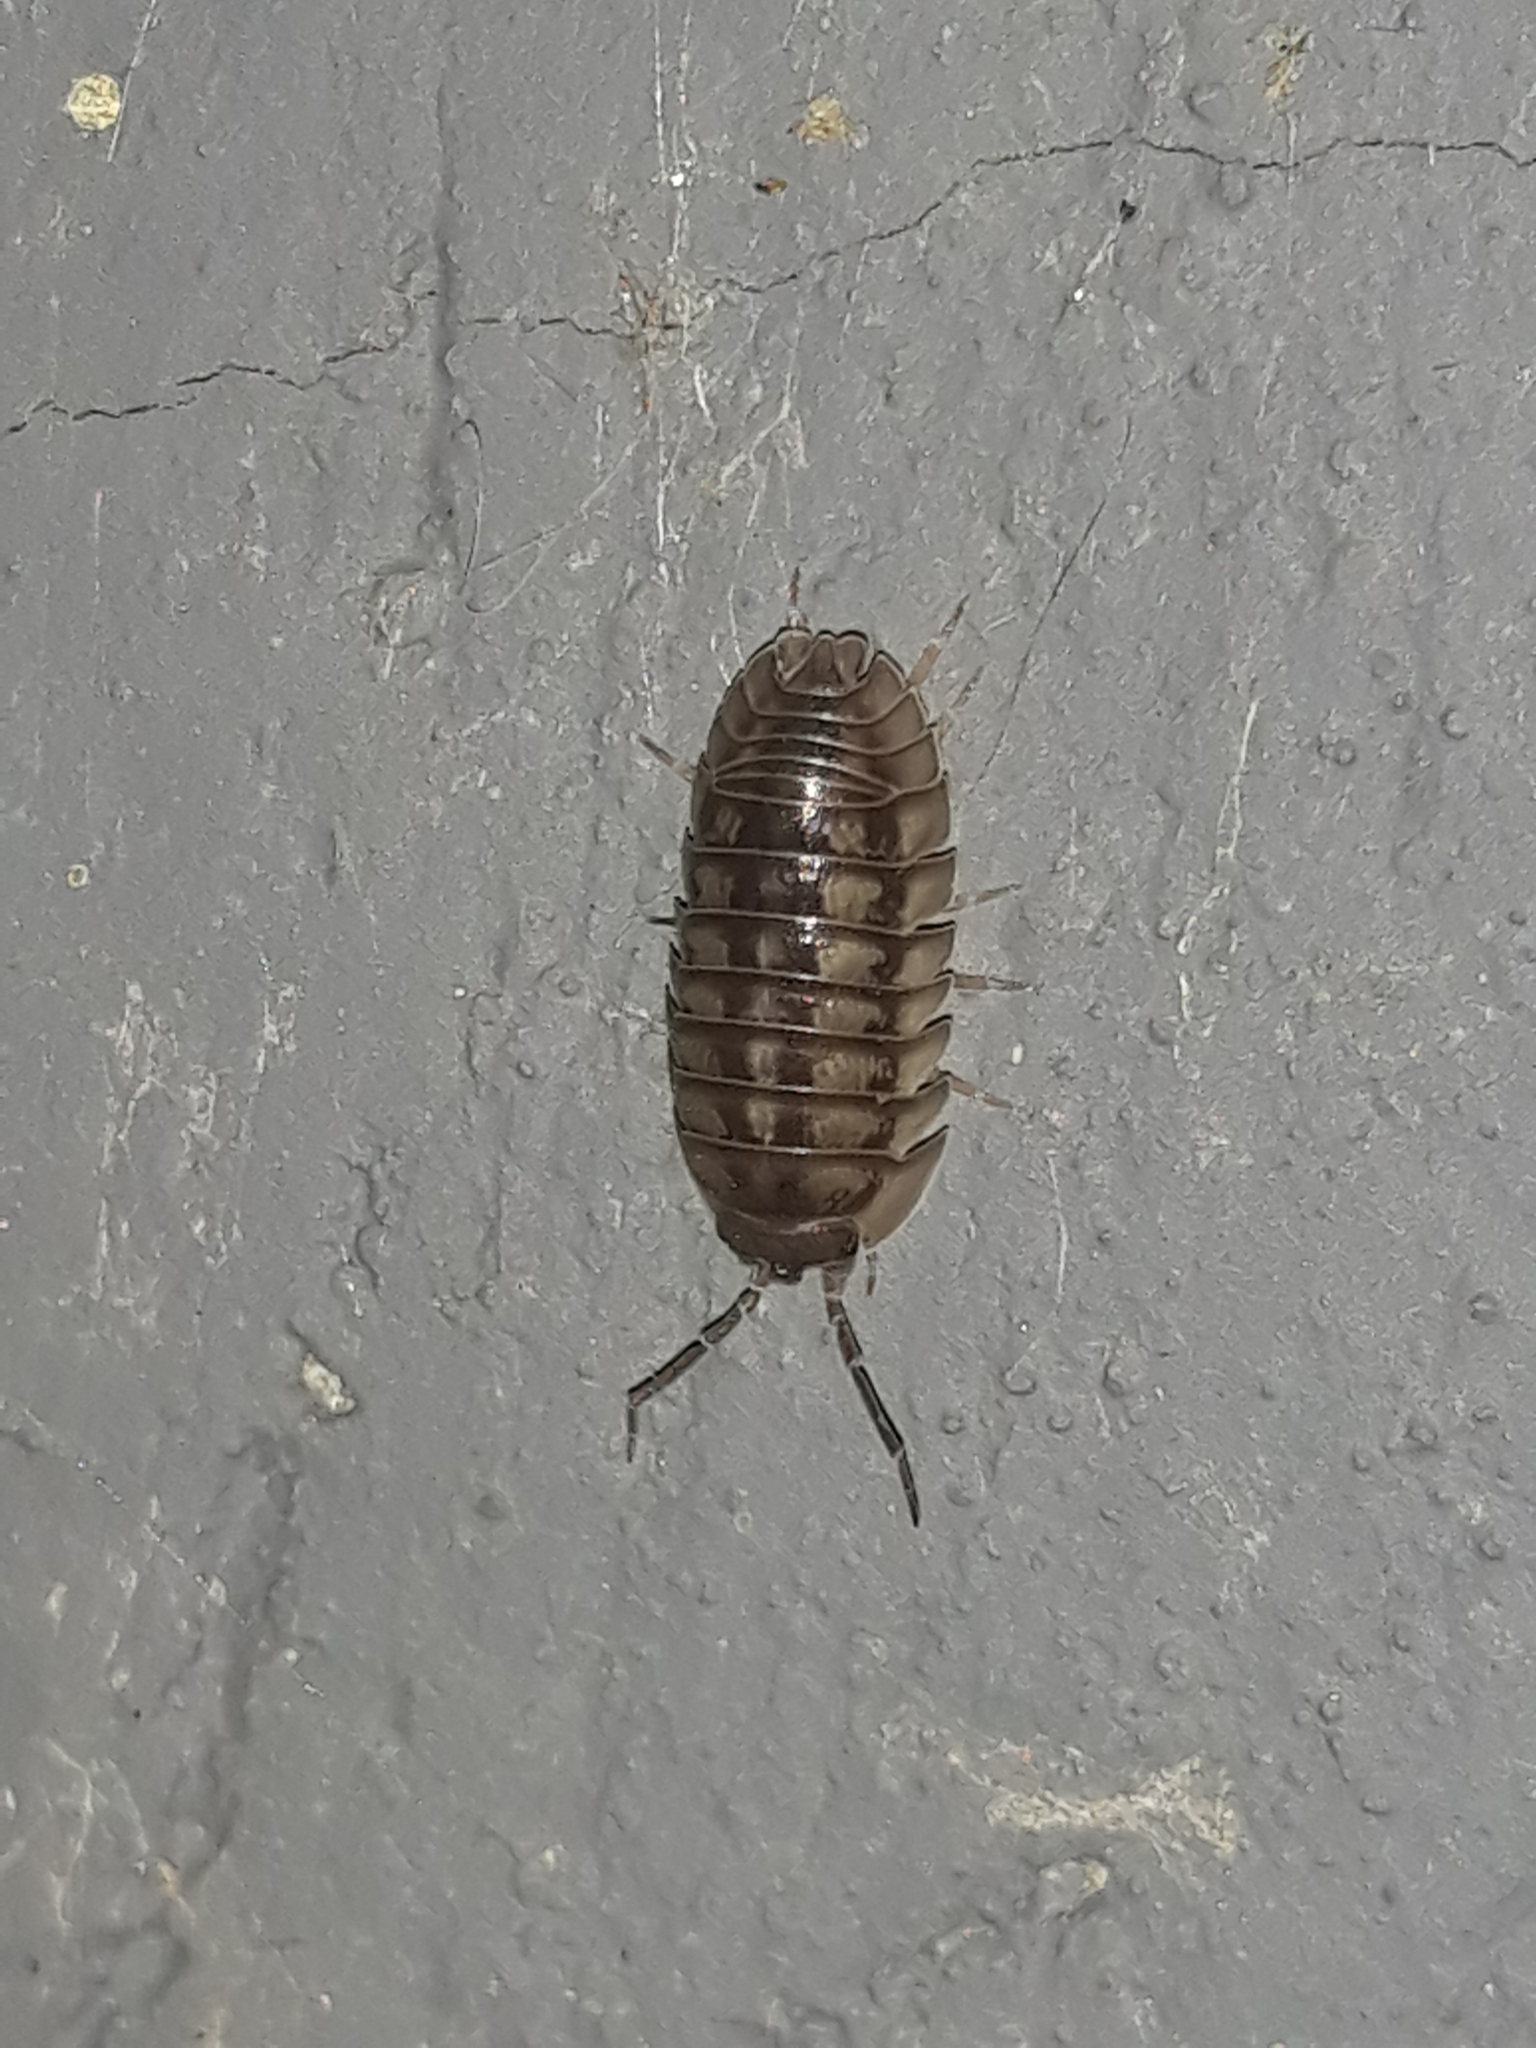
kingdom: Animalia
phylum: Arthropoda
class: Malacostraca
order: Isopoda
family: Armadillidiidae
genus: Armadillidium
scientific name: Armadillidium nasatum
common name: Isopod
